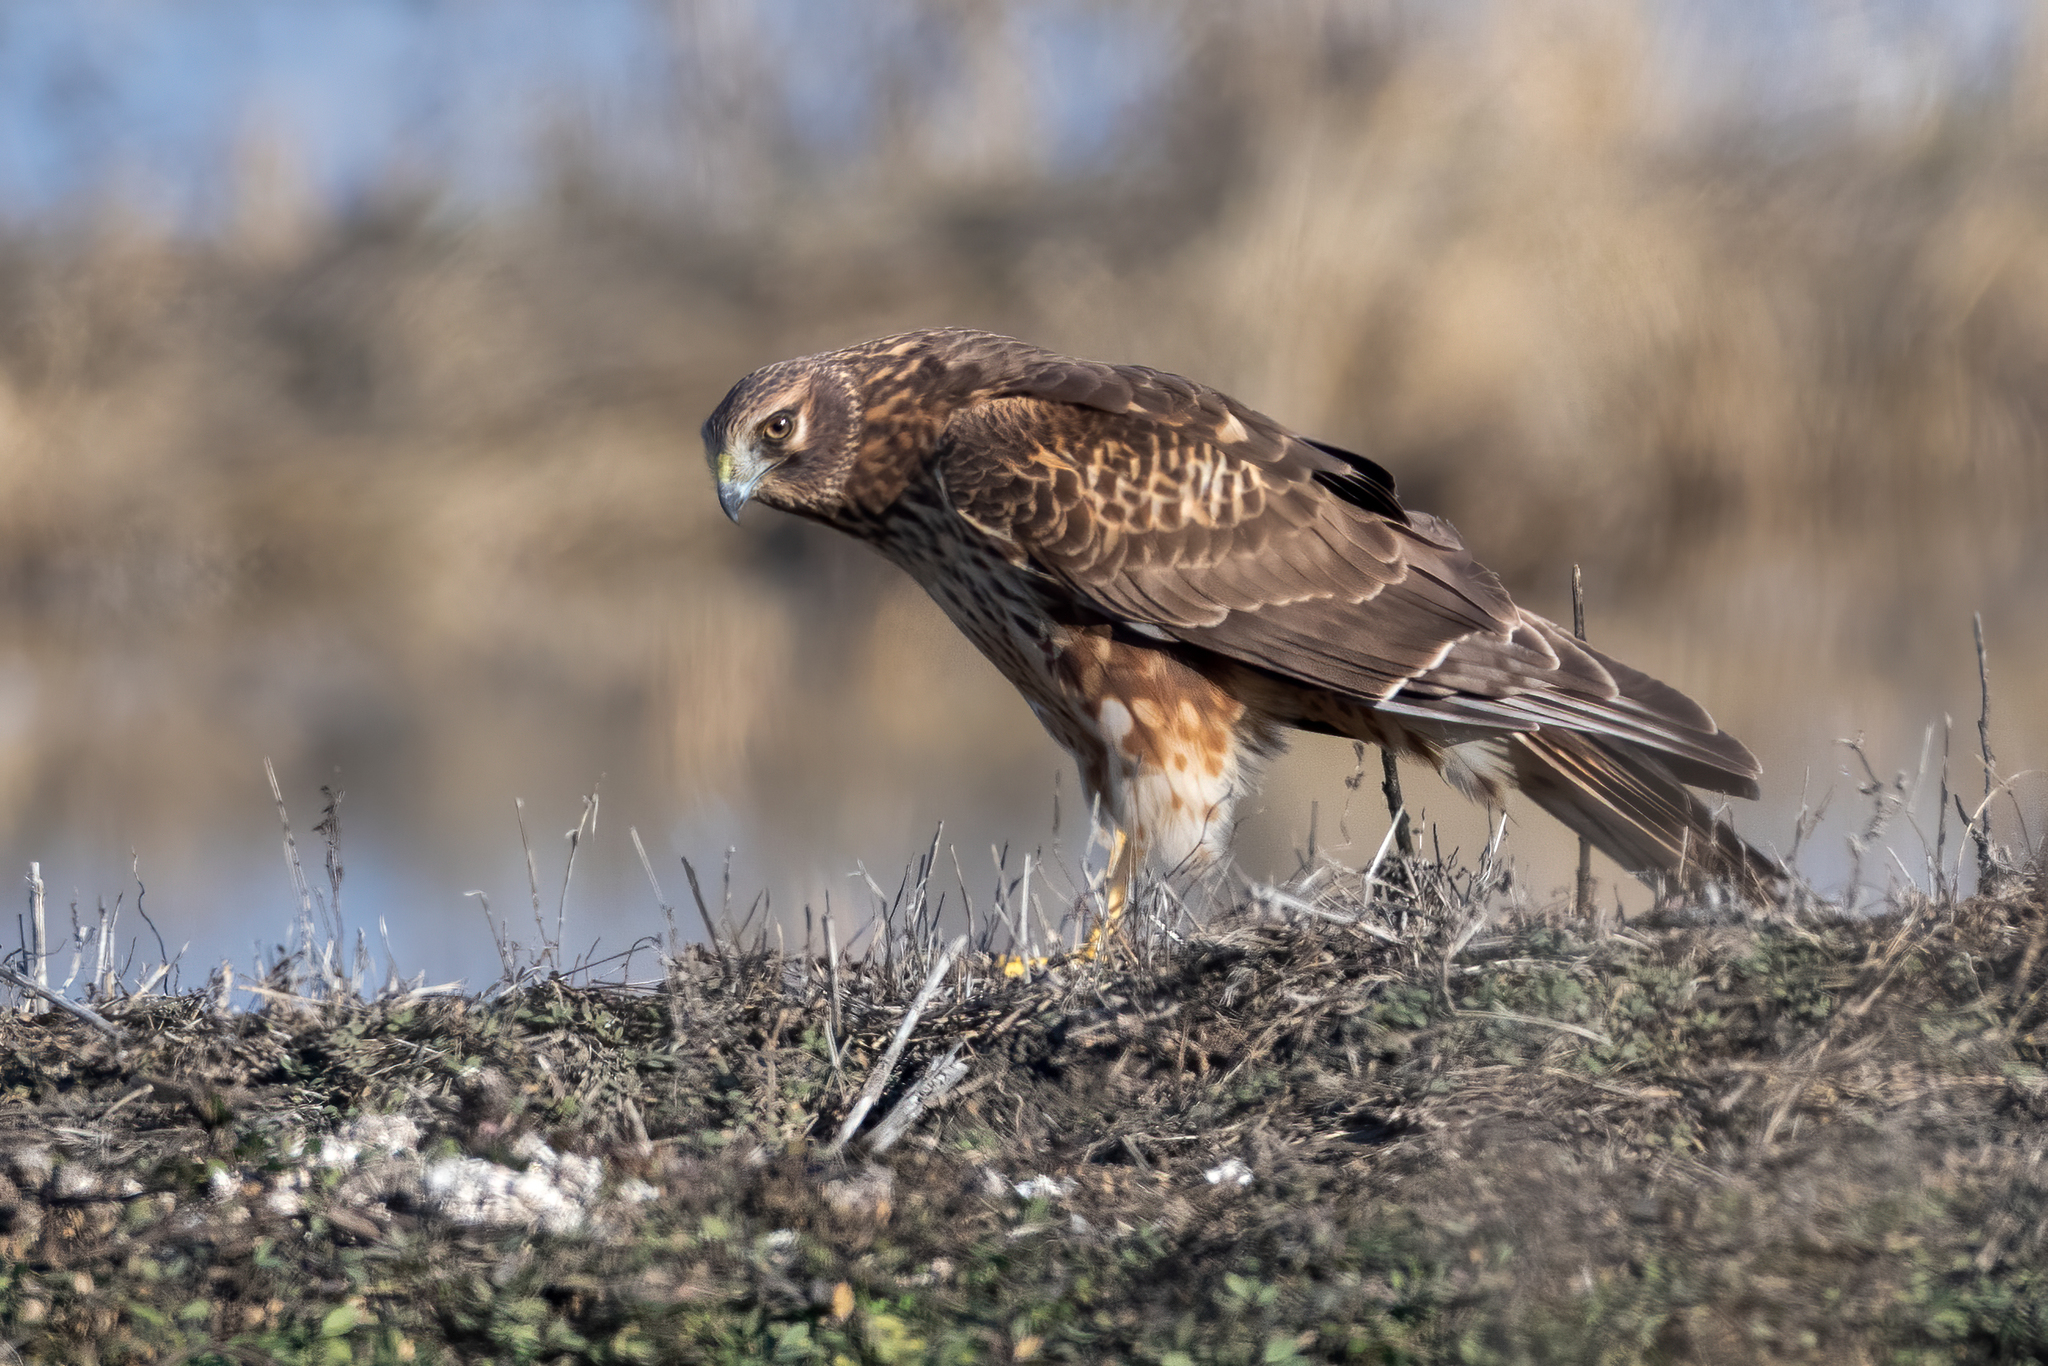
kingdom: Animalia
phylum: Chordata
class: Aves
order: Accipitriformes
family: Accipitridae
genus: Circus
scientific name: Circus cyaneus
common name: Hen harrier
